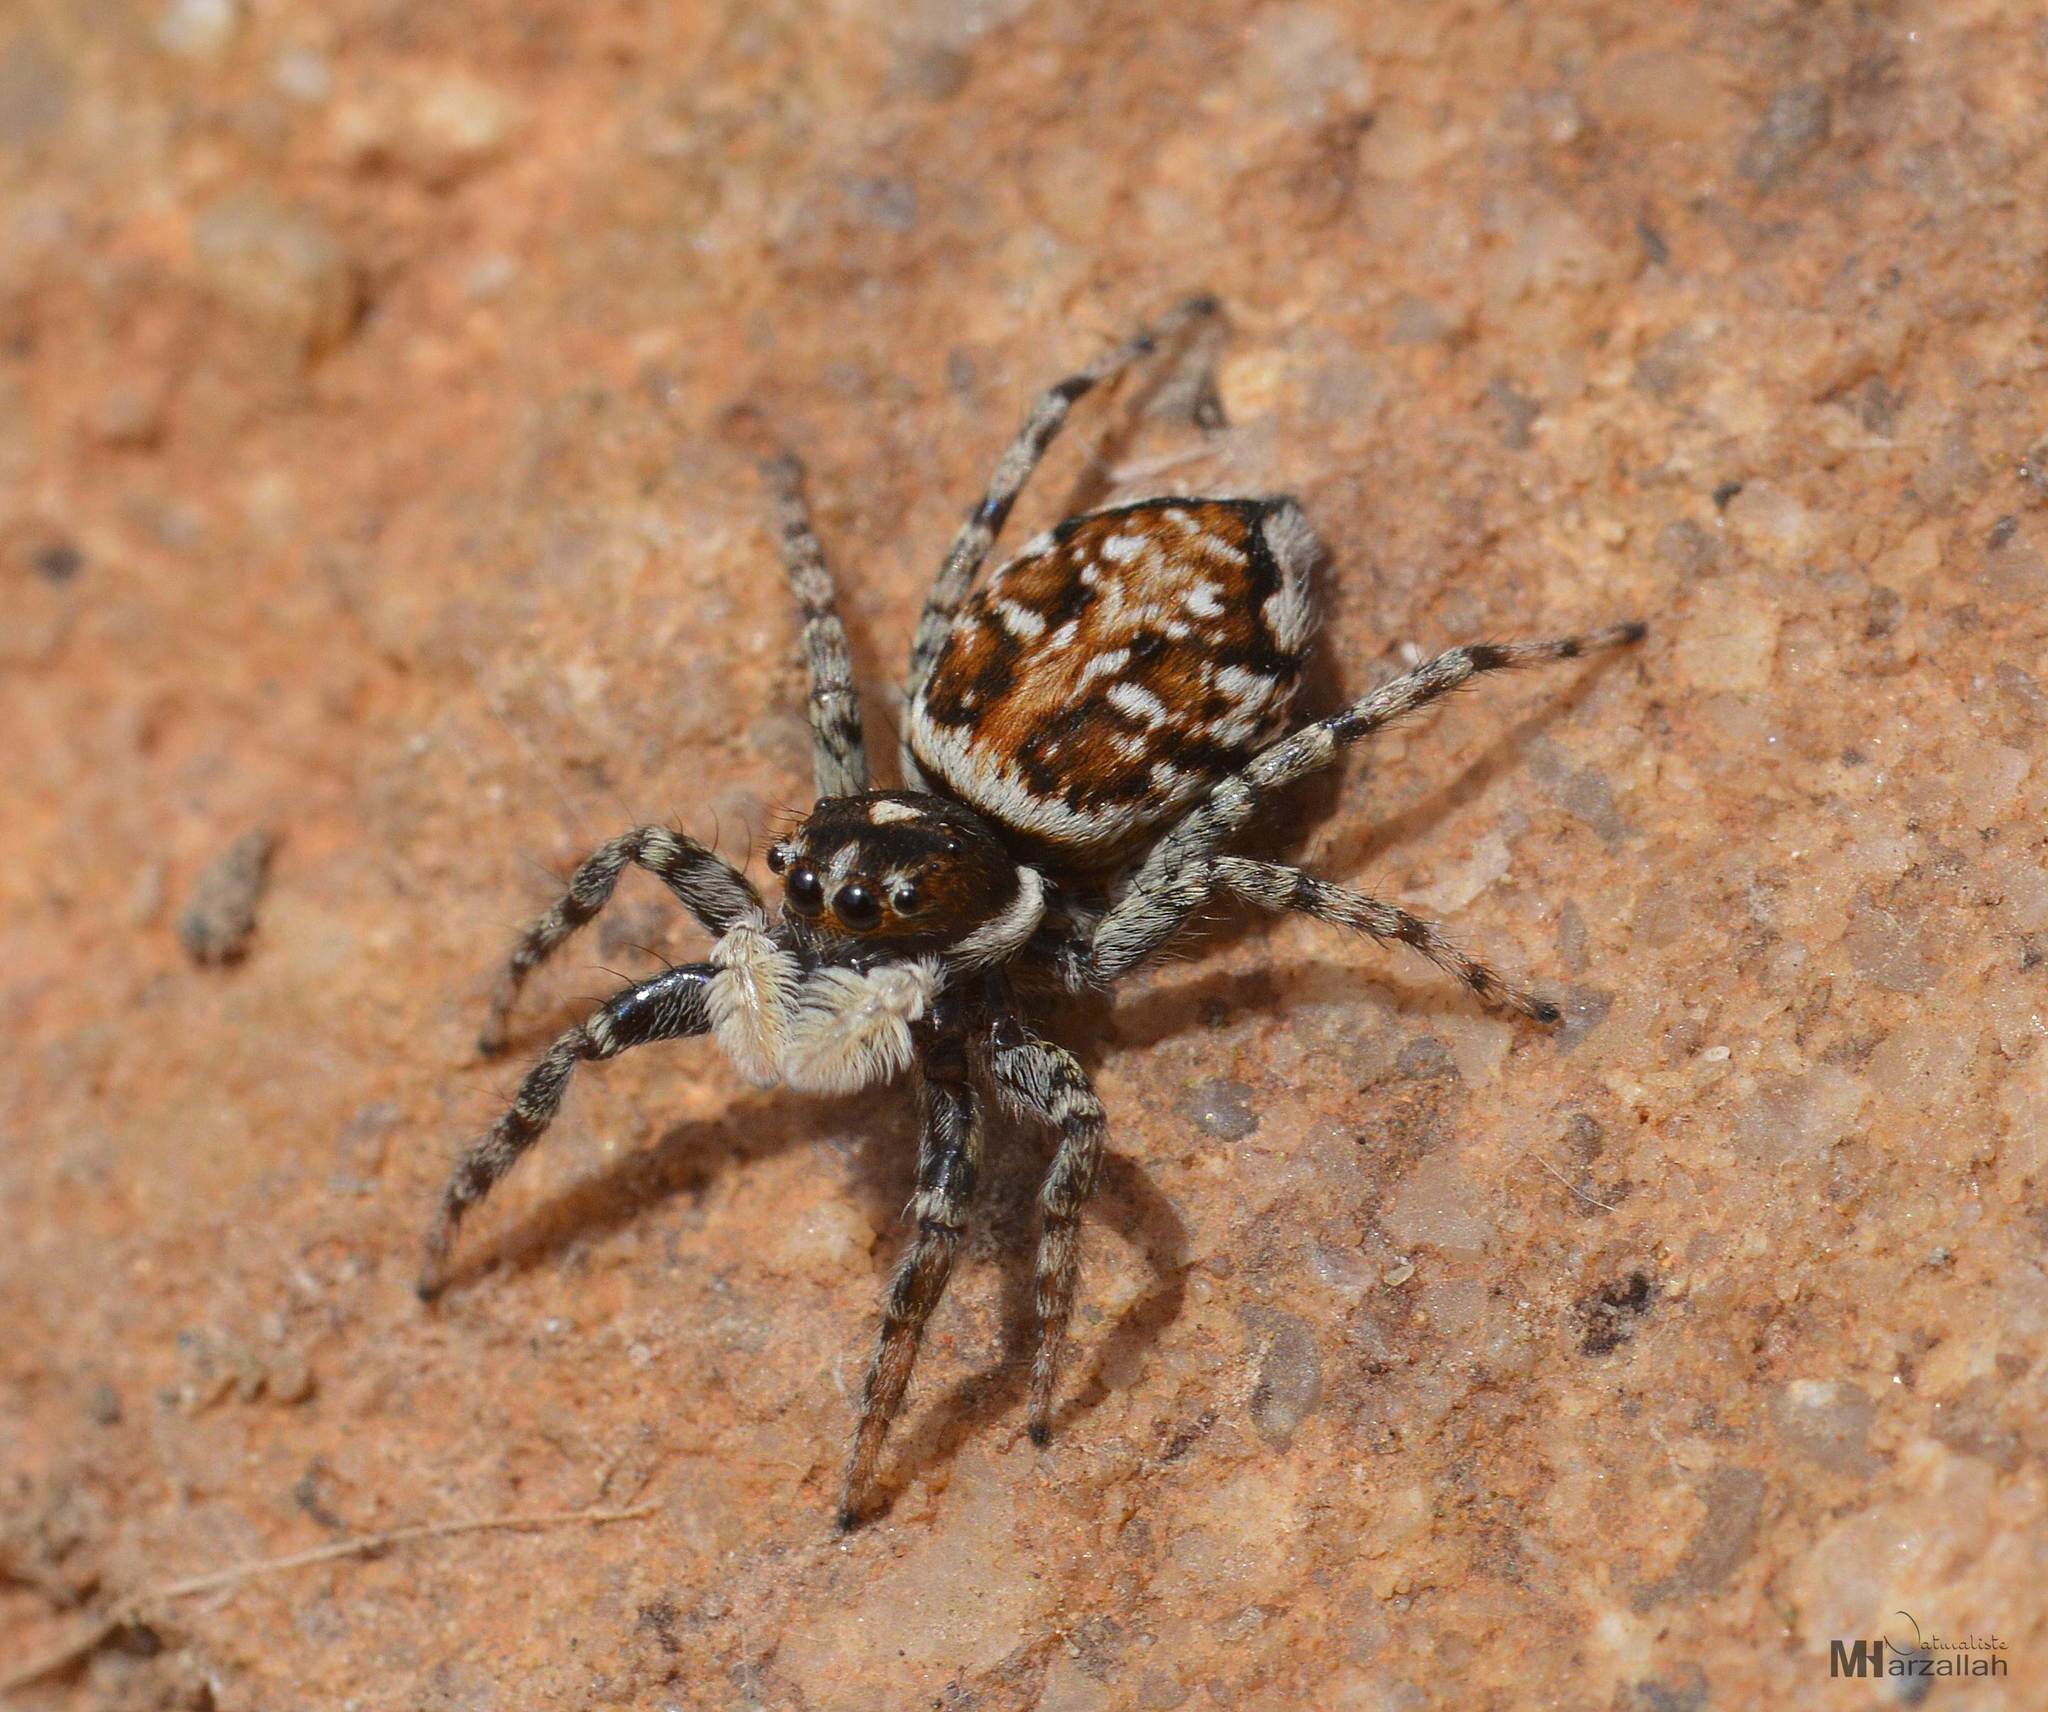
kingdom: Animalia
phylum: Arthropoda
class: Arachnida
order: Araneae
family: Salticidae
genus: Menemerus
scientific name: Menemerus semilimbatus
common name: Jumping spider
